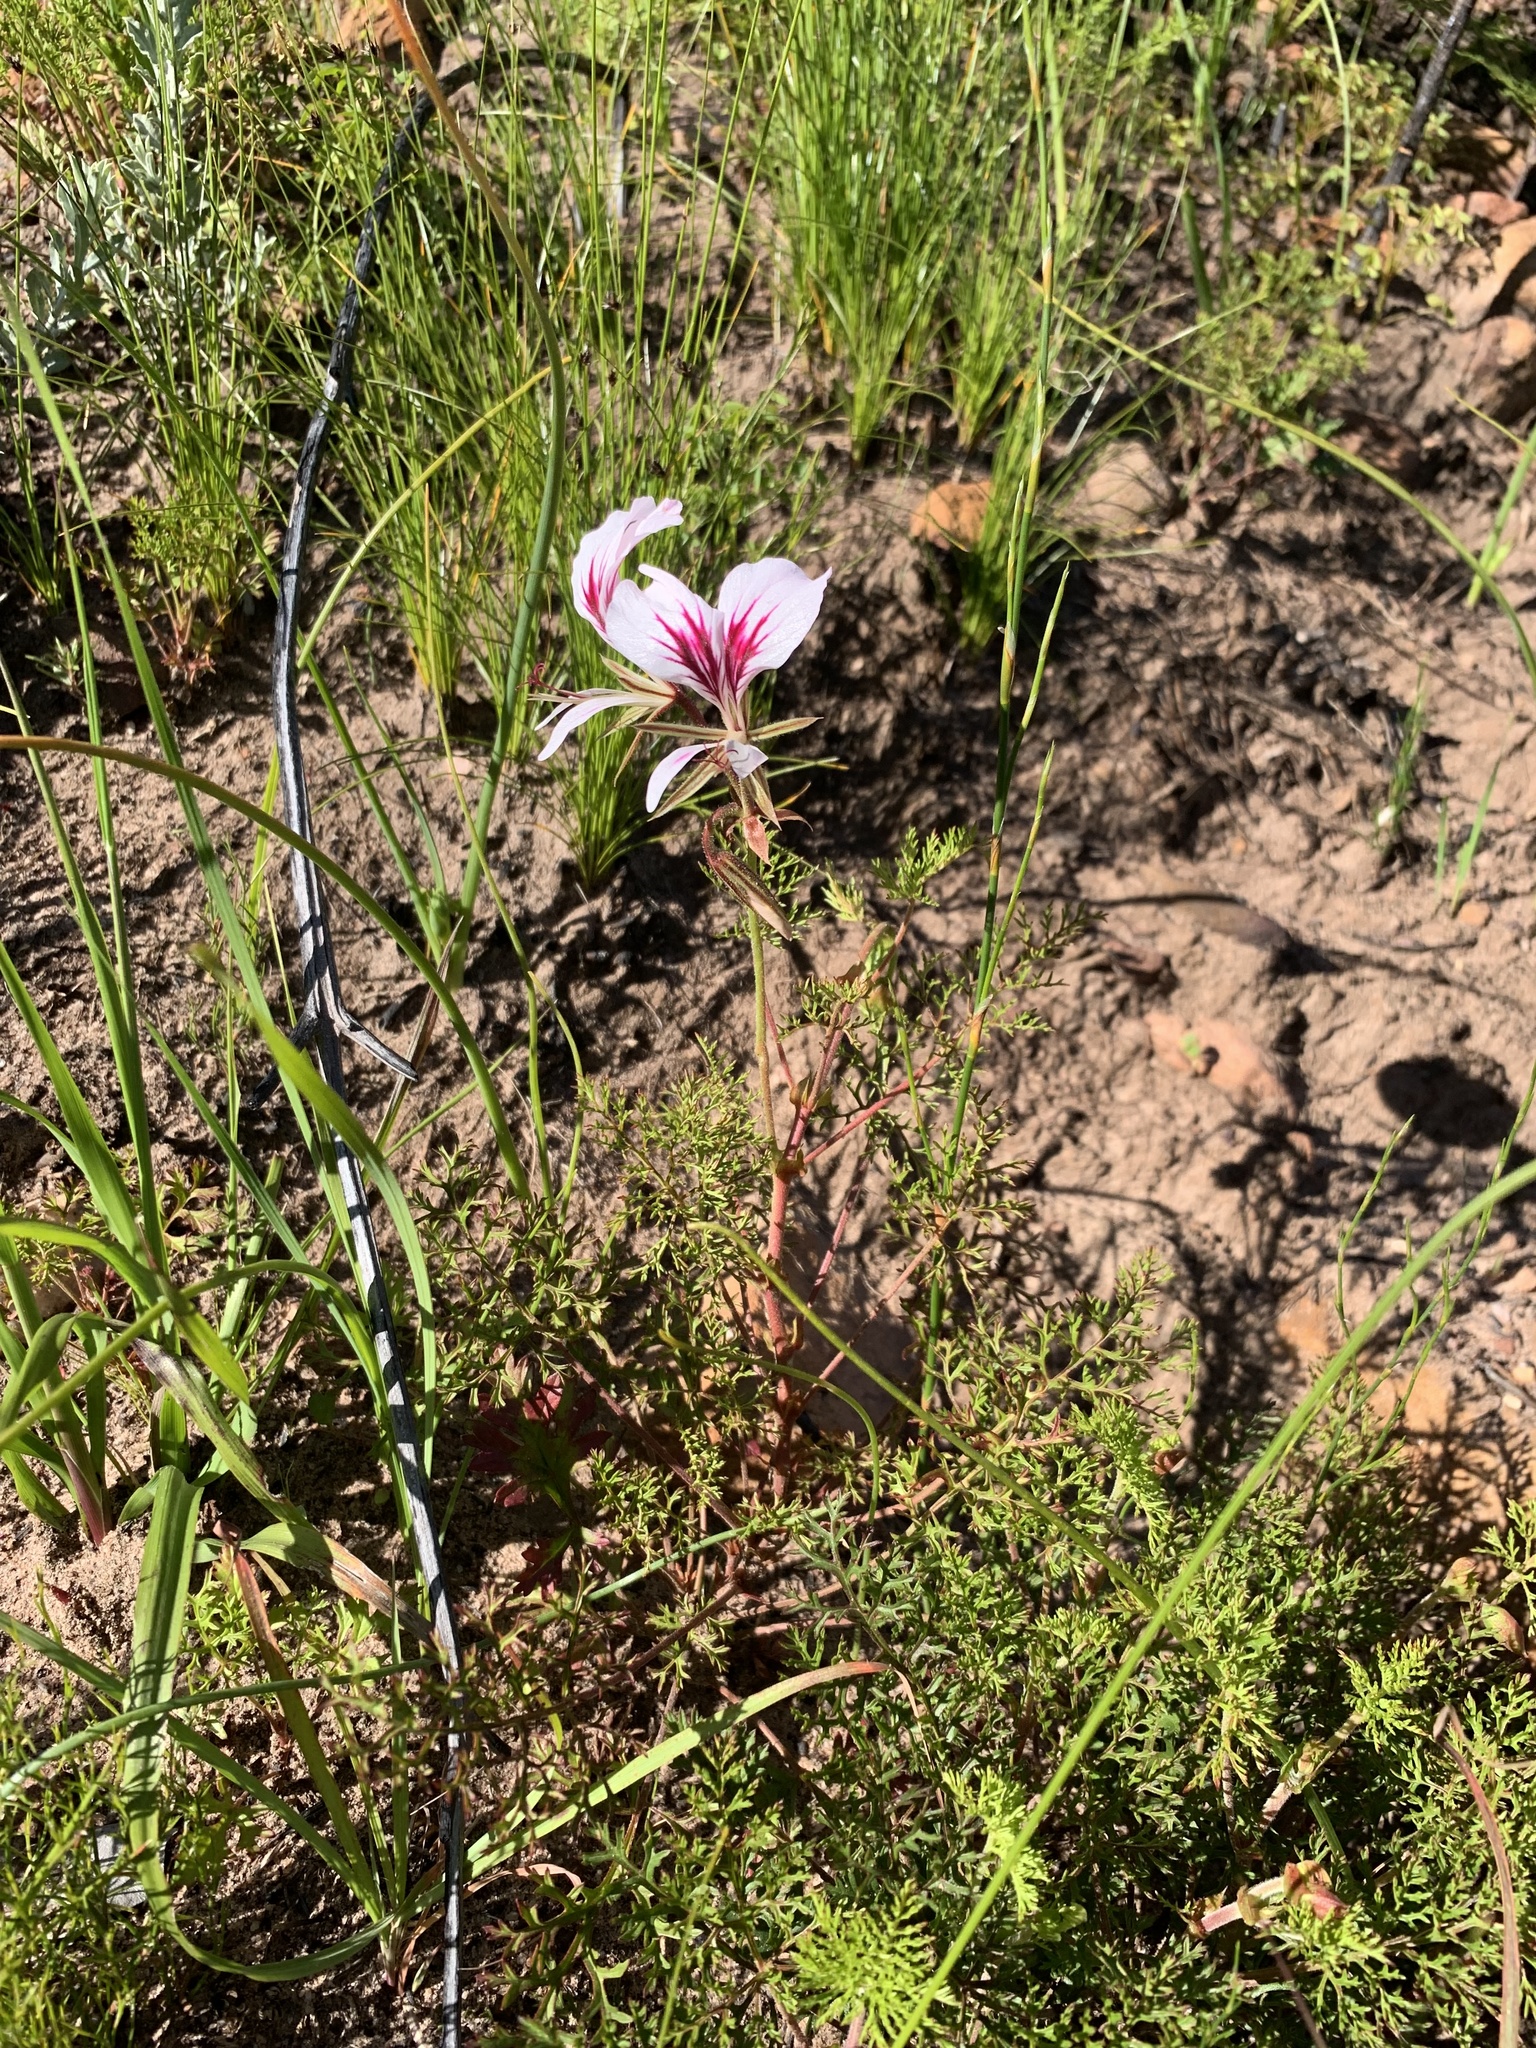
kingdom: Plantae
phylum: Tracheophyta
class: Magnoliopsida
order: Geraniales
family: Geraniaceae
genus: Pelargonium
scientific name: Pelargonium myrrhifolium
